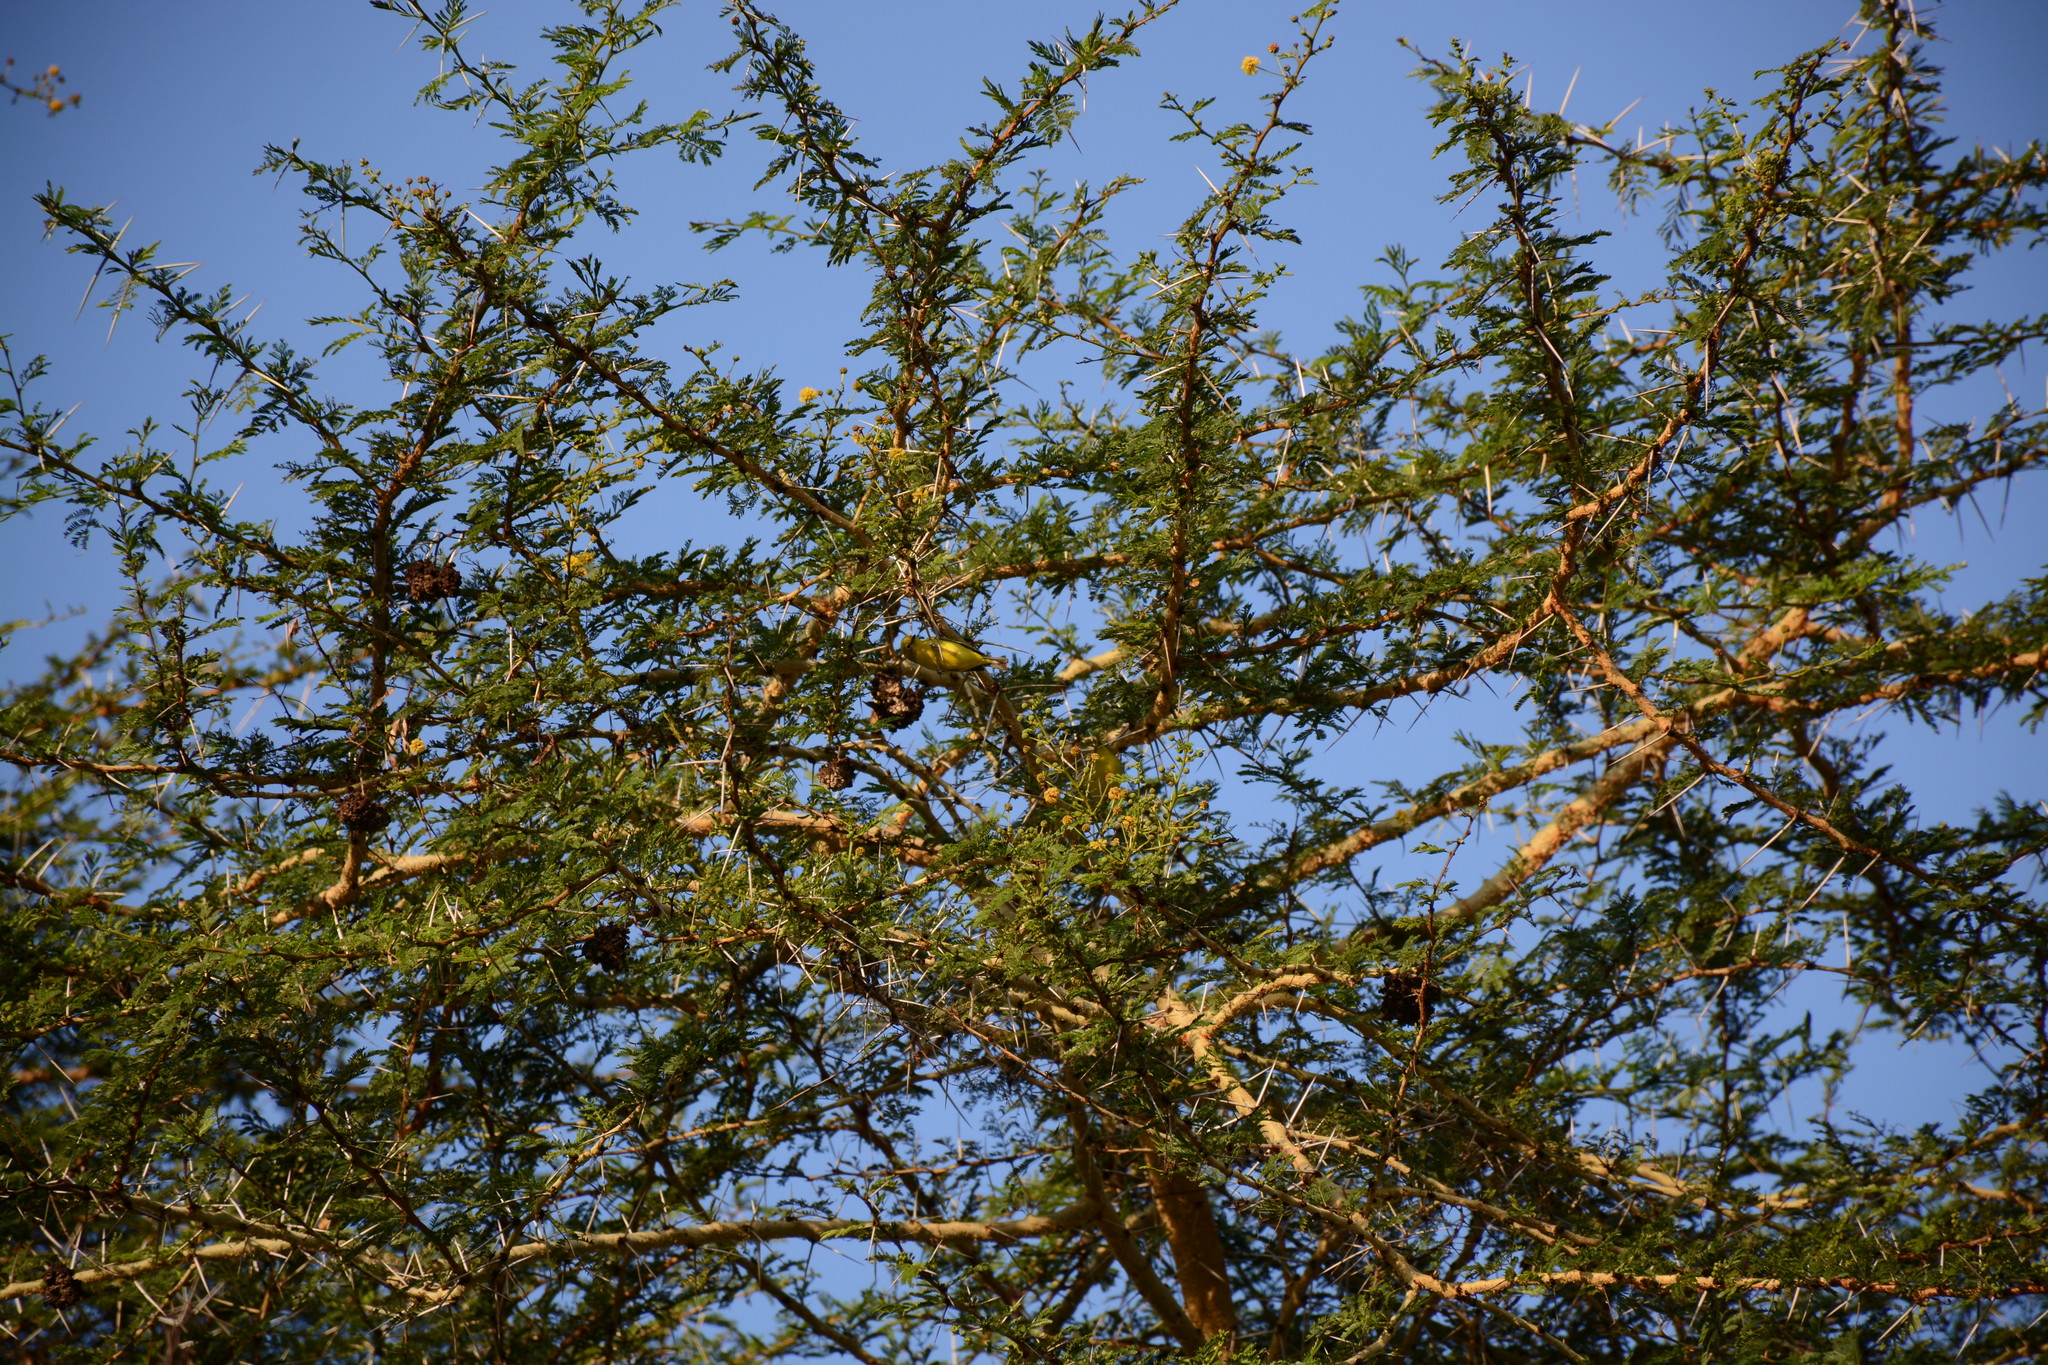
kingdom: Animalia
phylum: Chordata
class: Aves
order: Passeriformes
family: Zosteropidae
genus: Zosterops
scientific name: Zosterops flavilateralis
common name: Kenya white-eye
